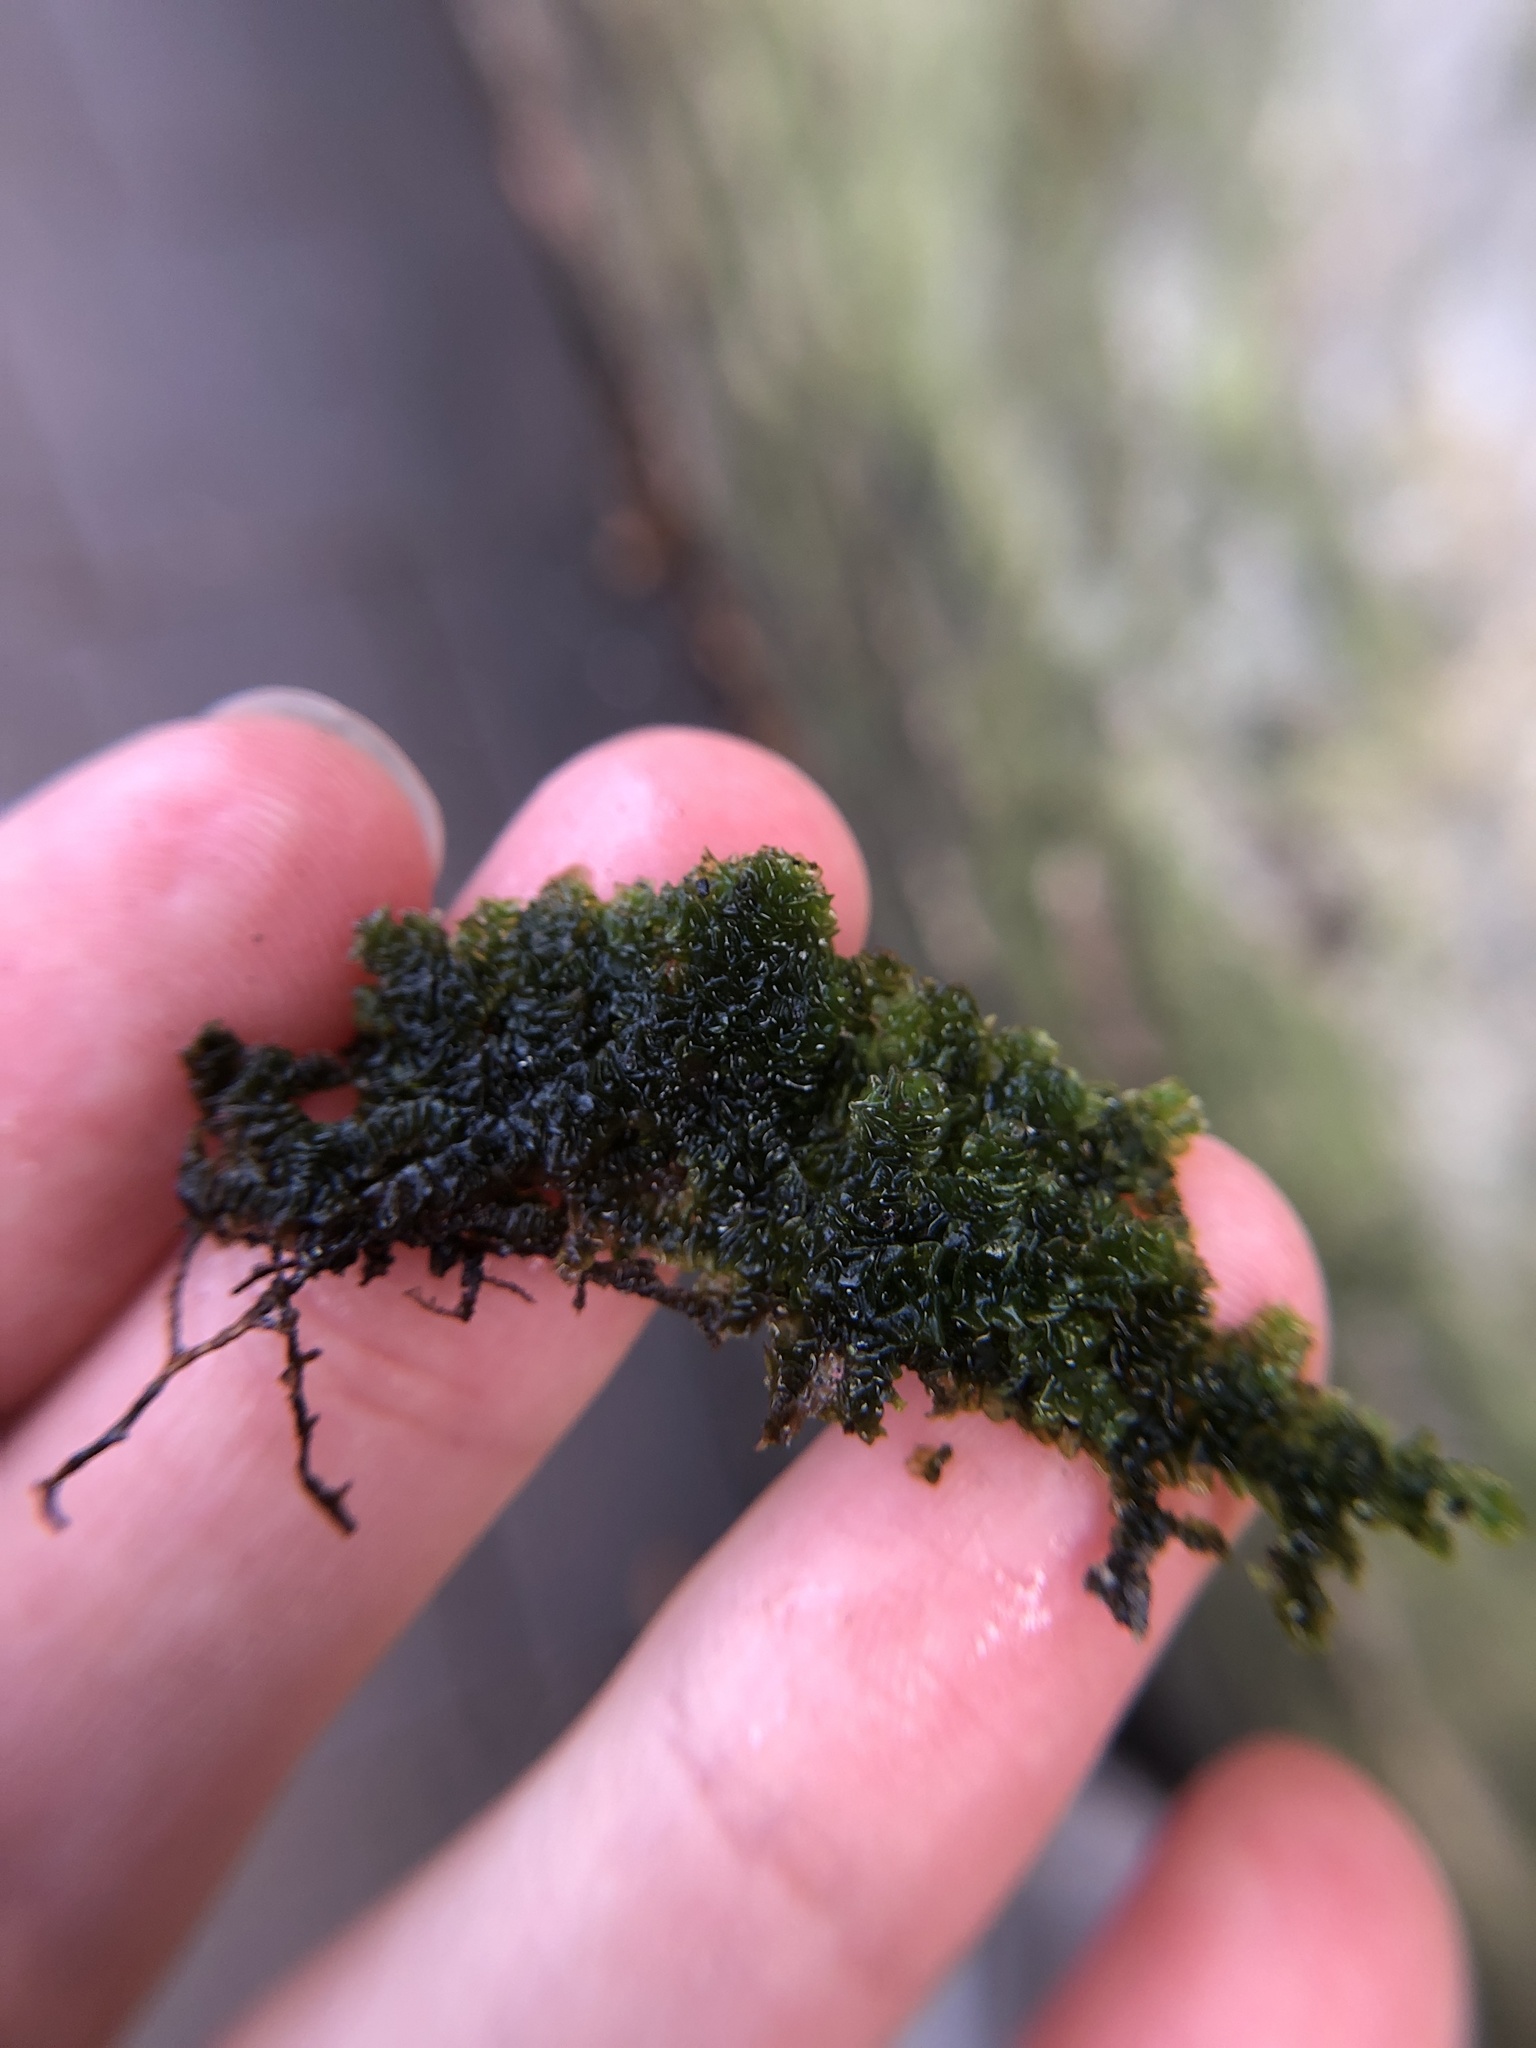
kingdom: Plantae
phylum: Marchantiophyta
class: Jungermanniopsida
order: Porellales
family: Porellaceae
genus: Porella
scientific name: Porella platyphylla
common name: Wall scalewort
